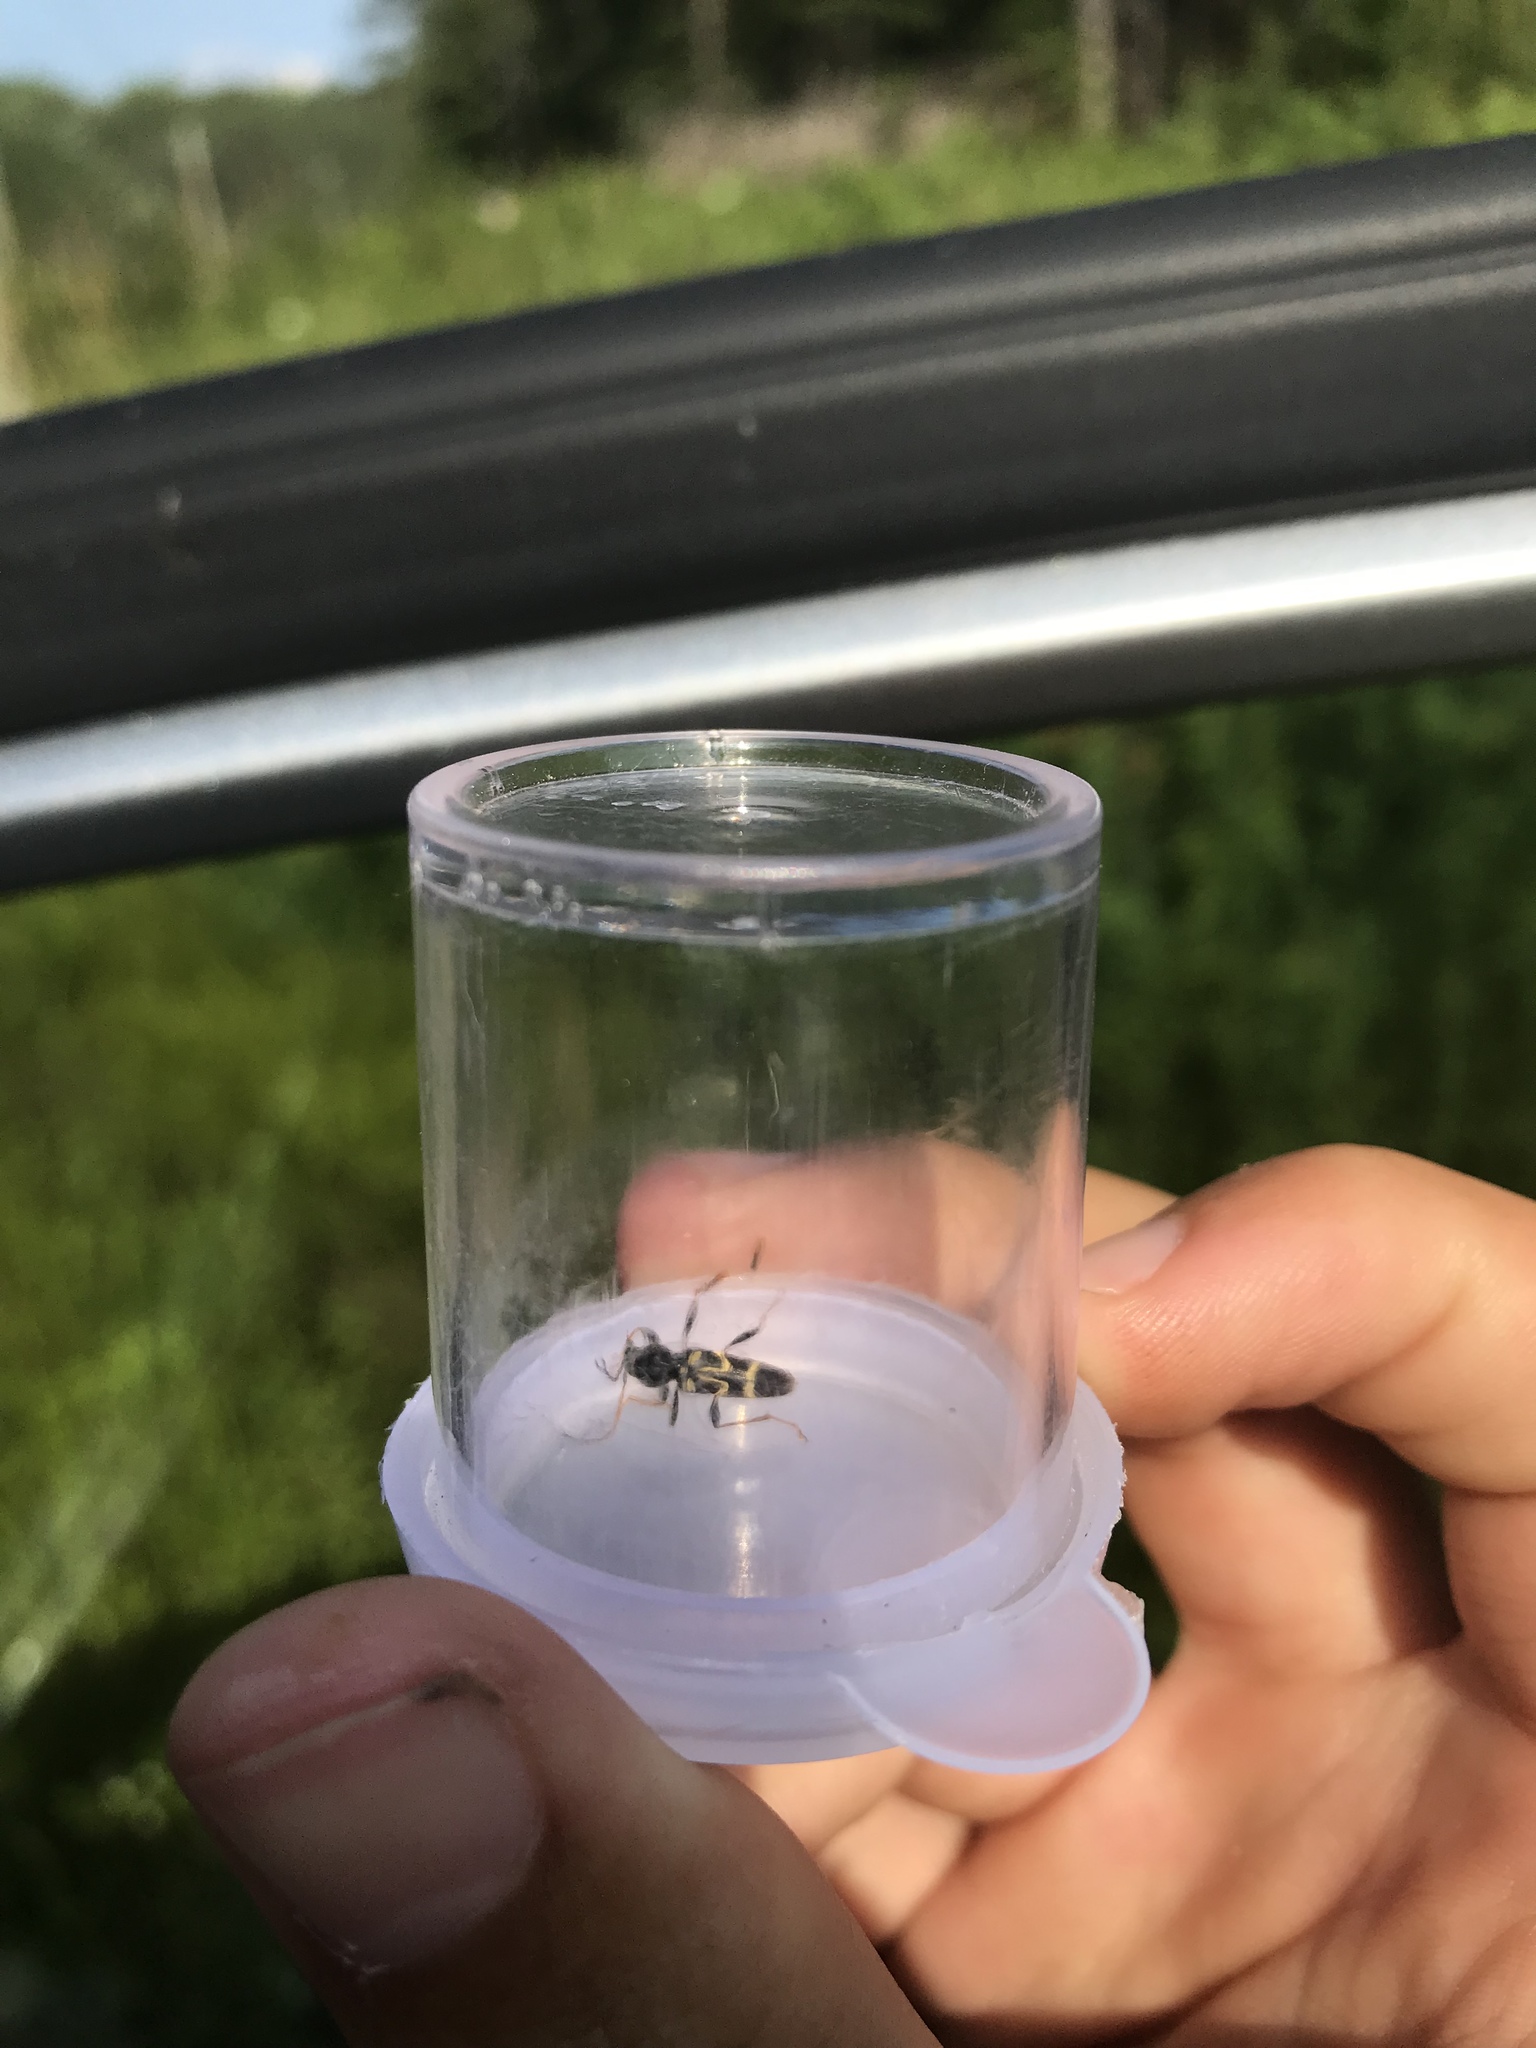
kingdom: Animalia
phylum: Arthropoda
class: Insecta
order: Coleoptera
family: Cerambycidae
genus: Clytus
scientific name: Clytus ruricola
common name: Round-necked longhorn beetle
